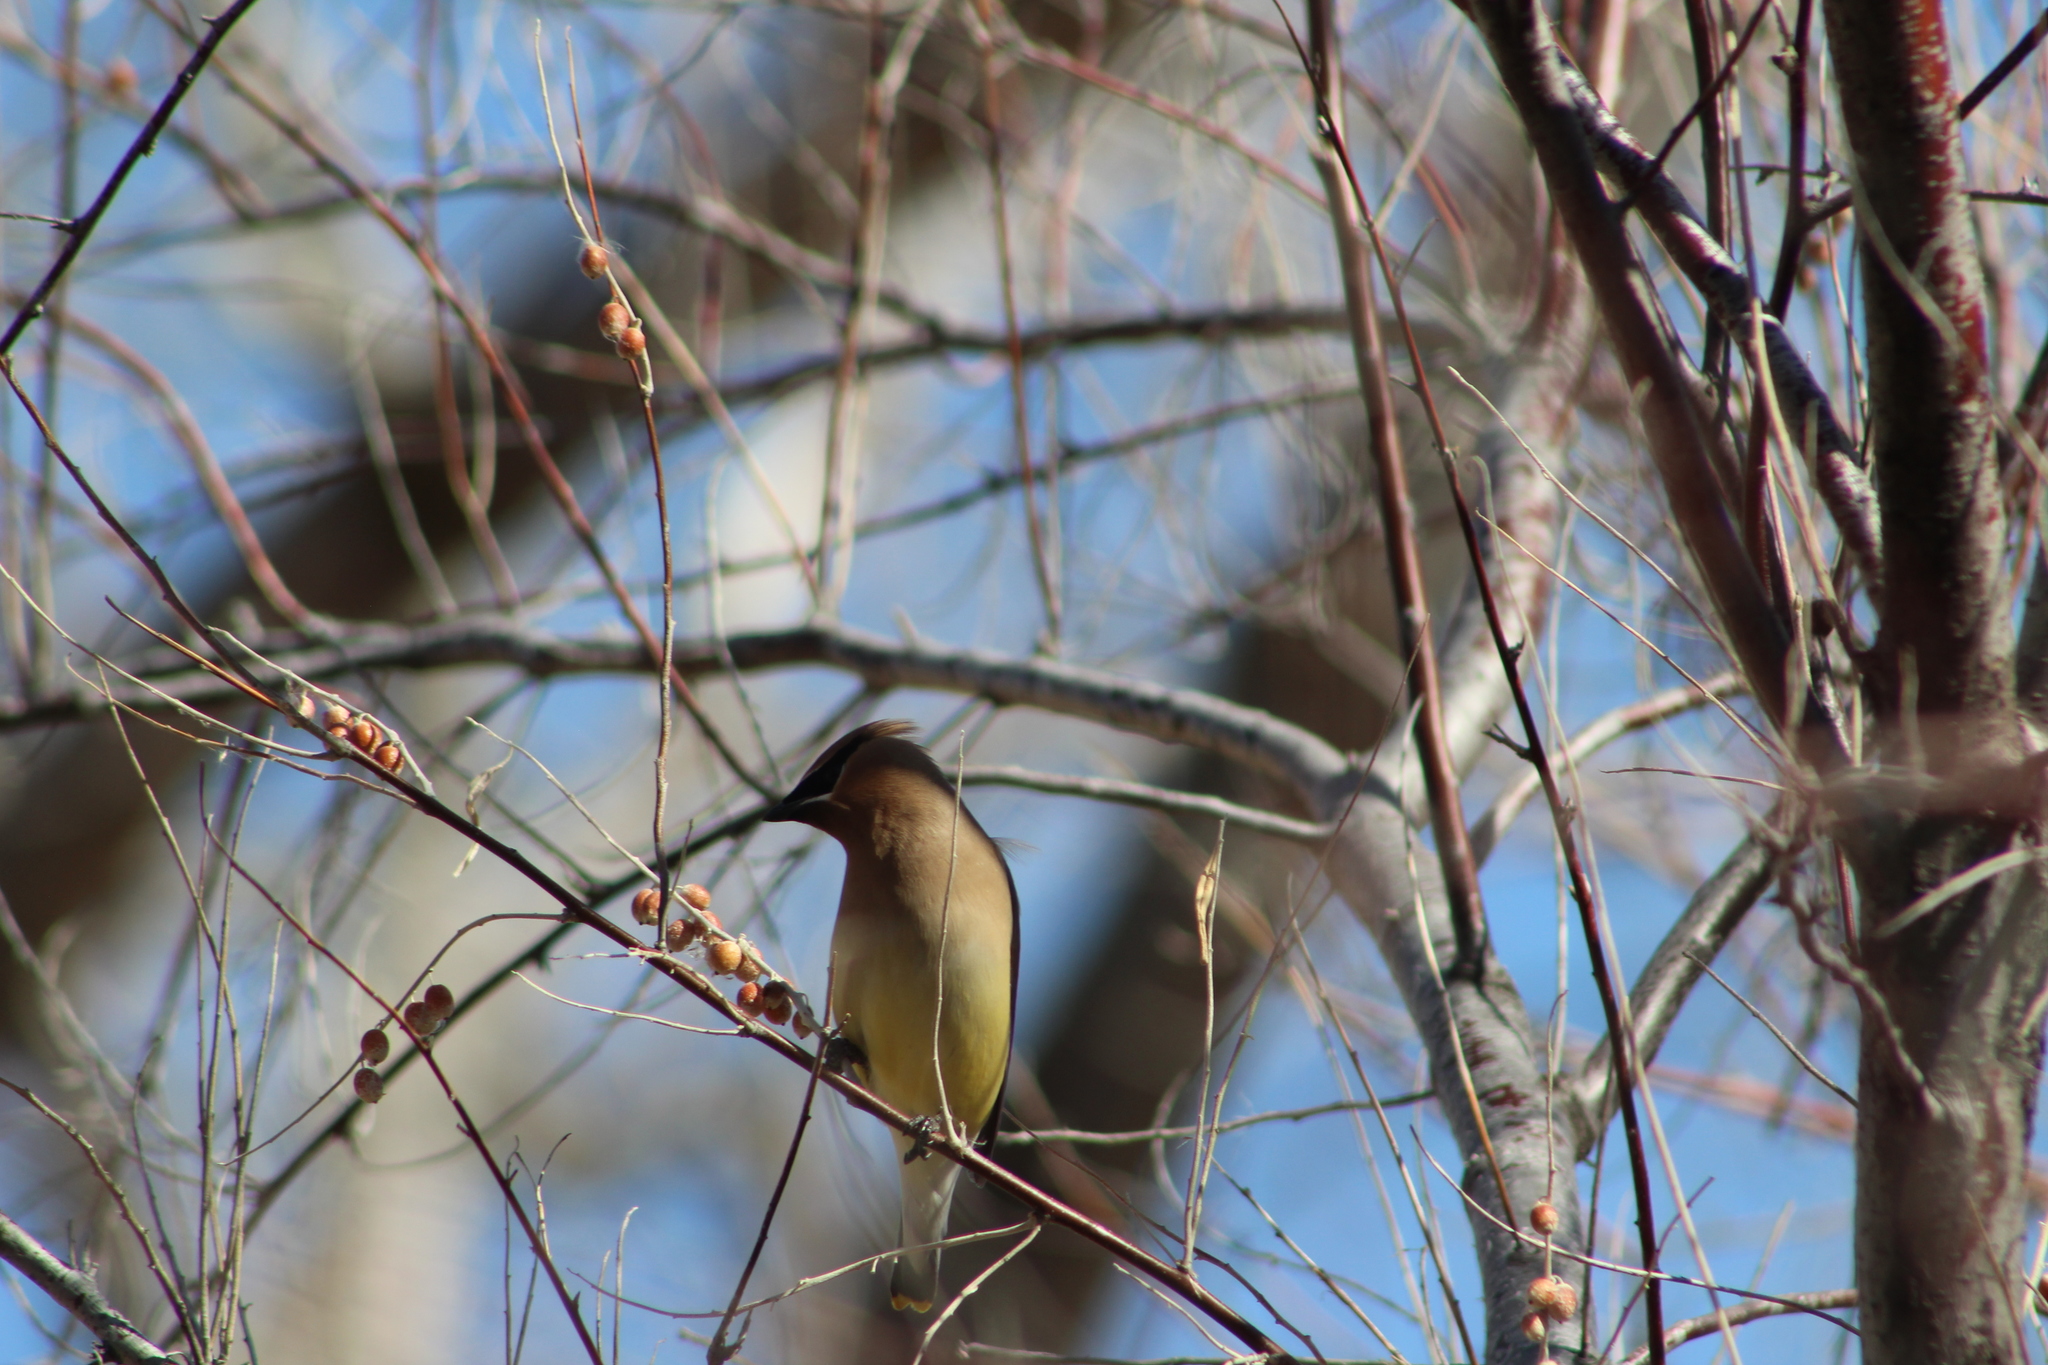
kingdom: Animalia
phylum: Chordata
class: Aves
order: Passeriformes
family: Bombycillidae
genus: Bombycilla
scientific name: Bombycilla cedrorum
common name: Cedar waxwing
